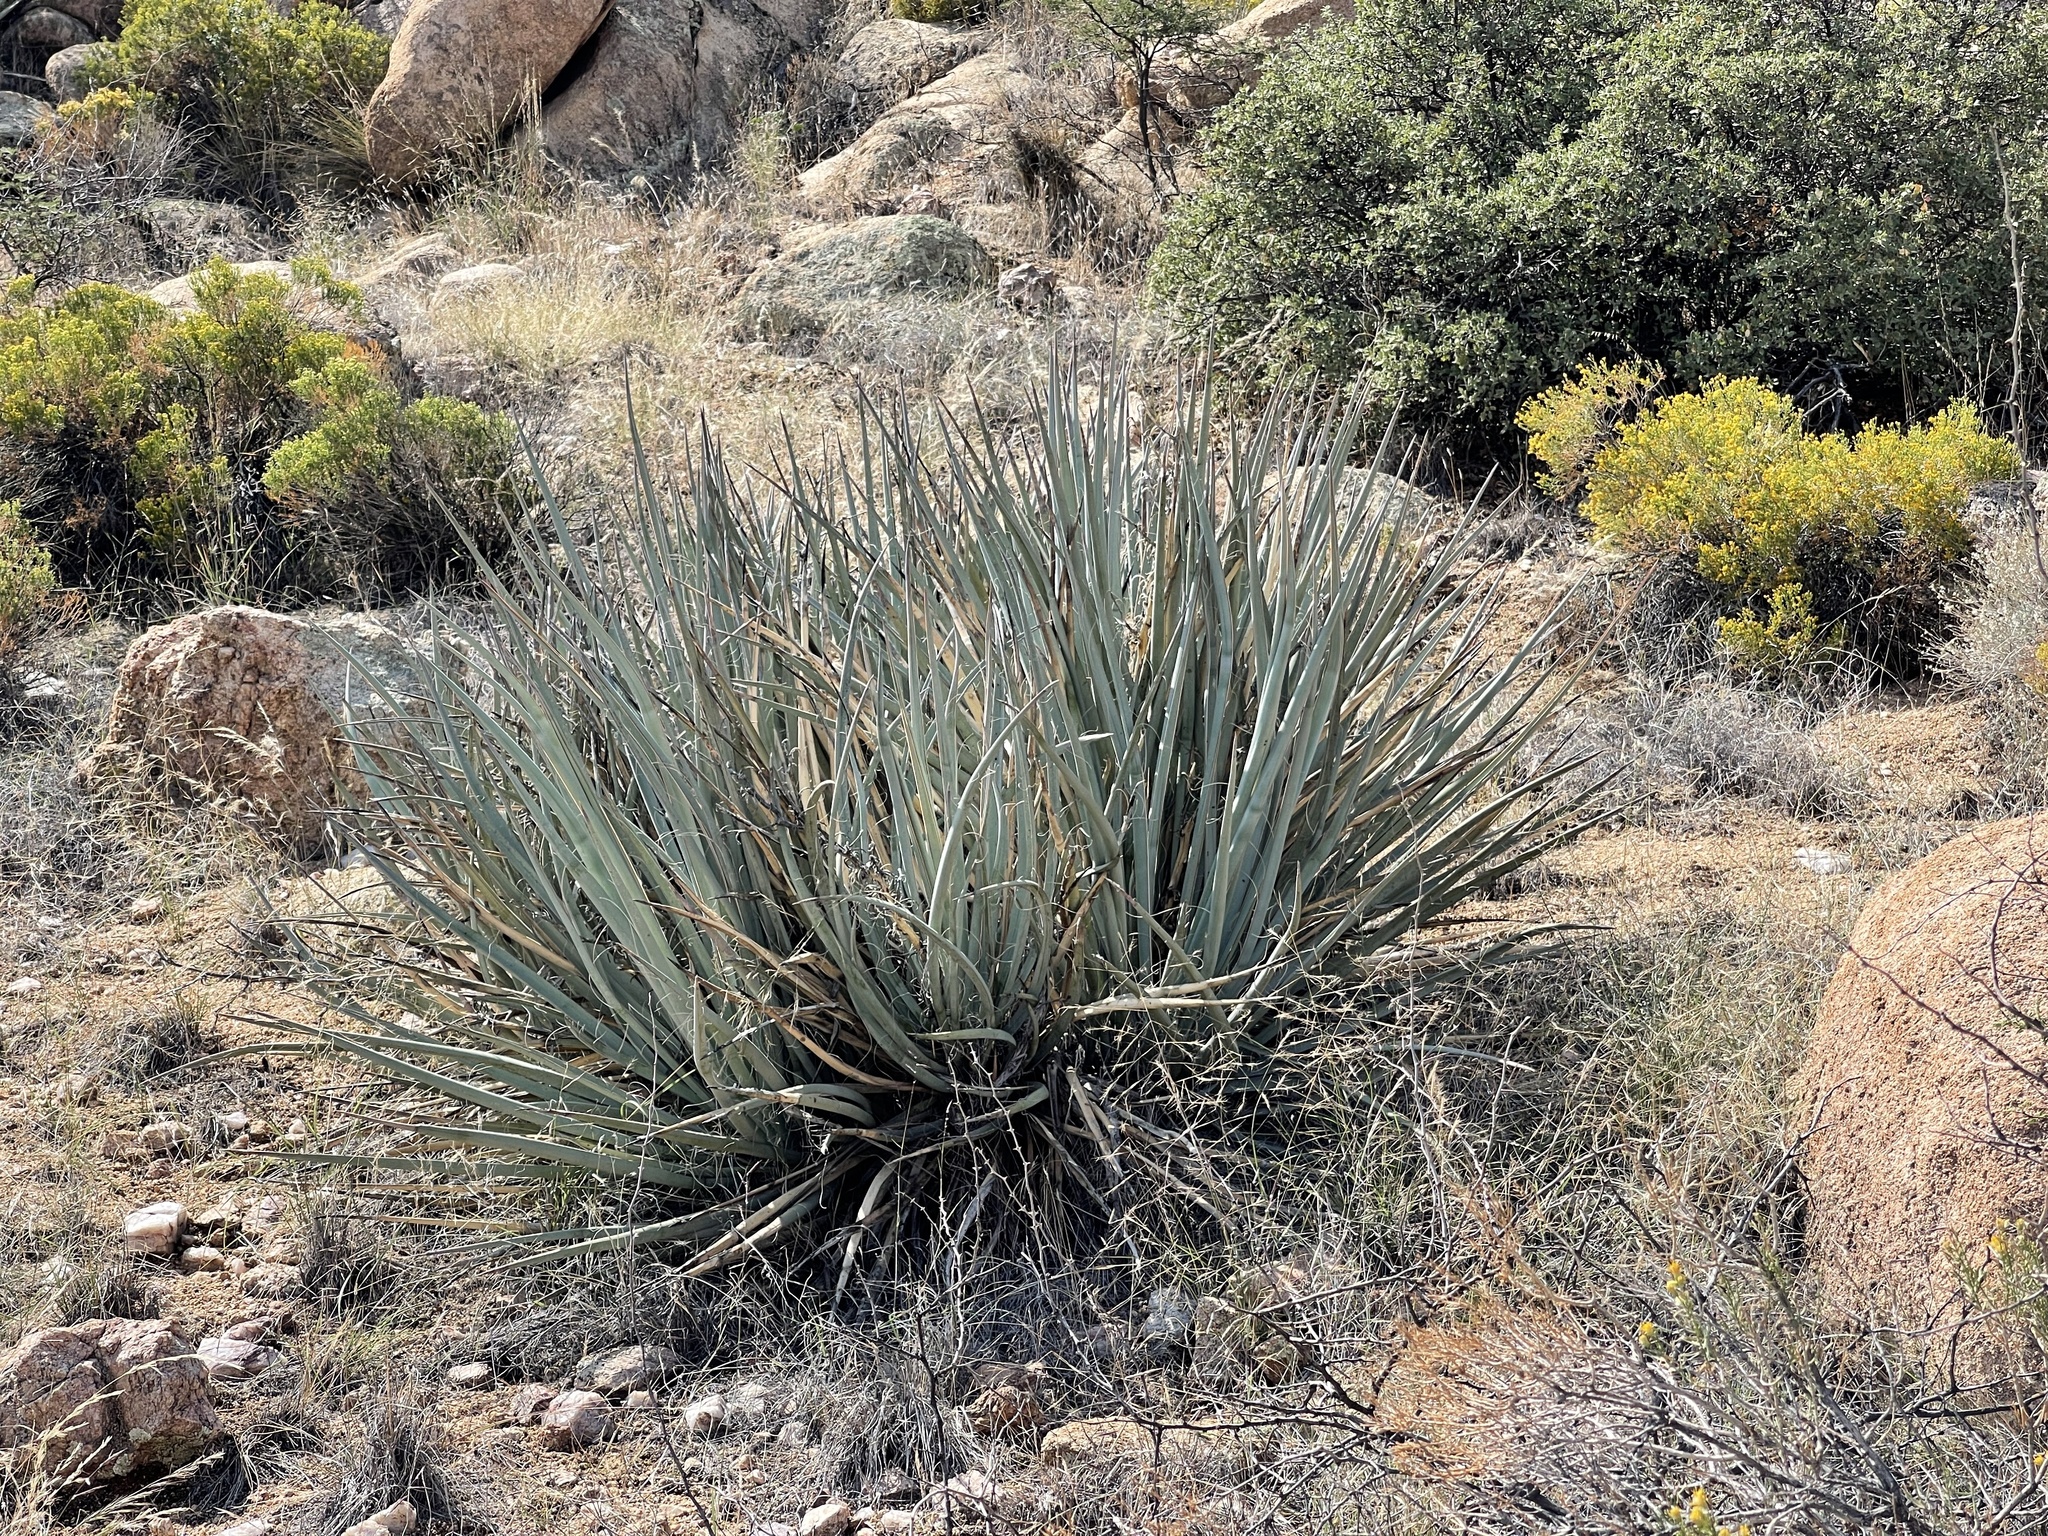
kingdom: Plantae
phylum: Tracheophyta
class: Liliopsida
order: Asparagales
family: Asparagaceae
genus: Yucca
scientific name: Yucca baccata
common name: Banana yucca
